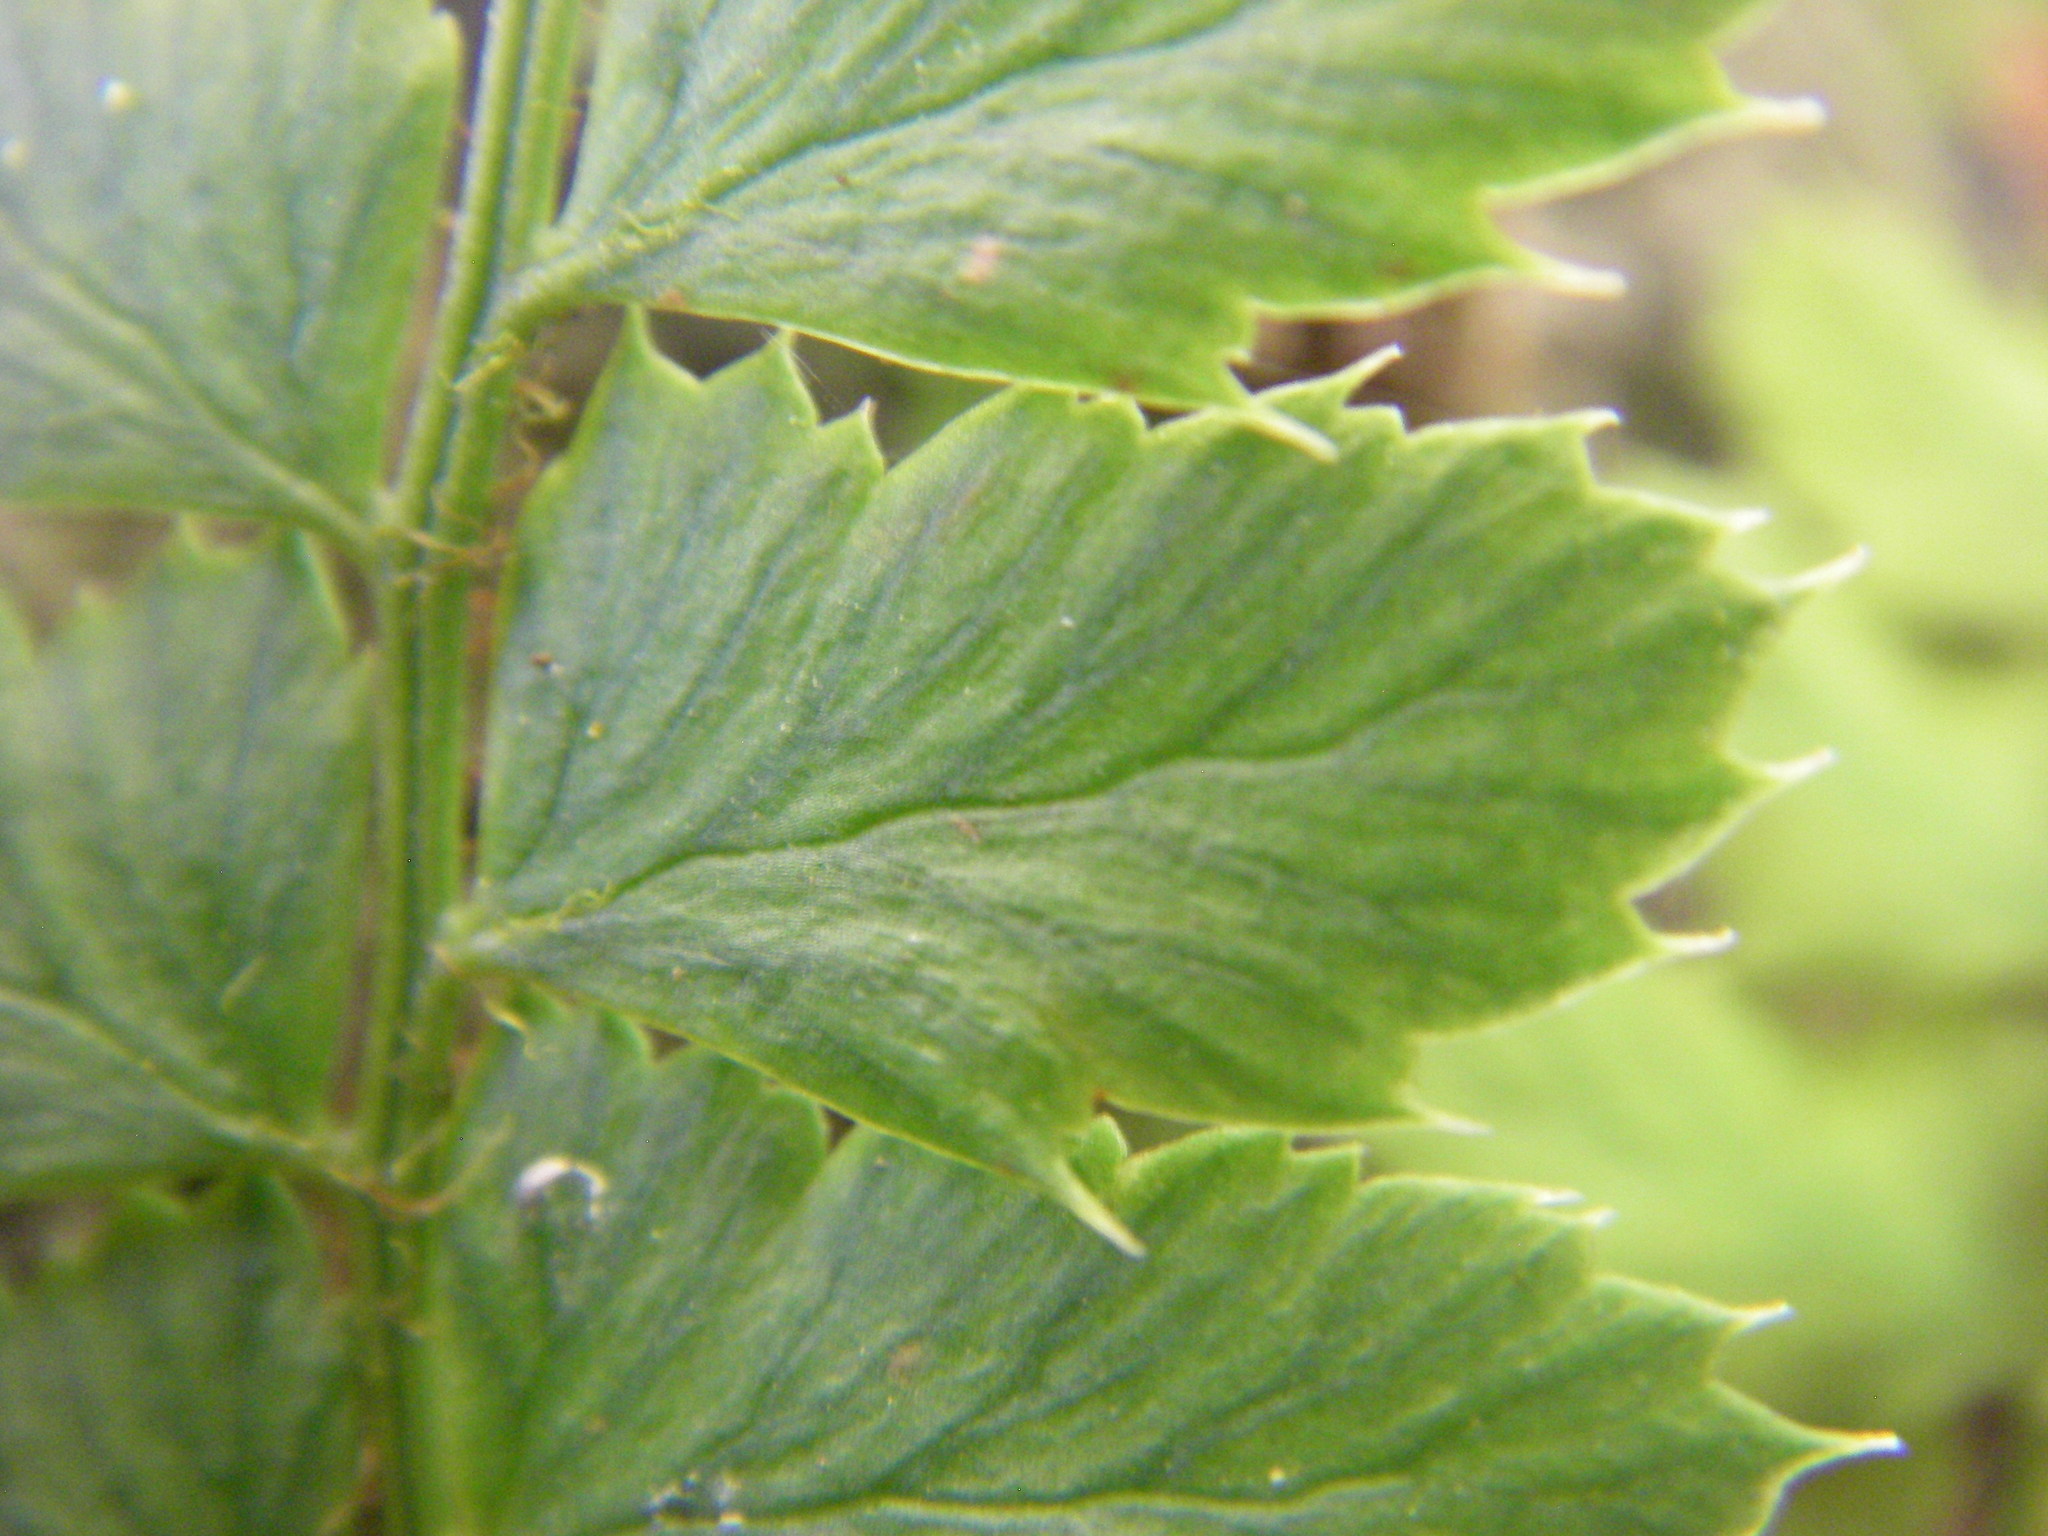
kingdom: Plantae
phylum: Tracheophyta
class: Polypodiopsida
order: Polypodiales
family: Dryopteridaceae
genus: Polystichum
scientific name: Polystichum aculeatum
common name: Hard shield-fern
